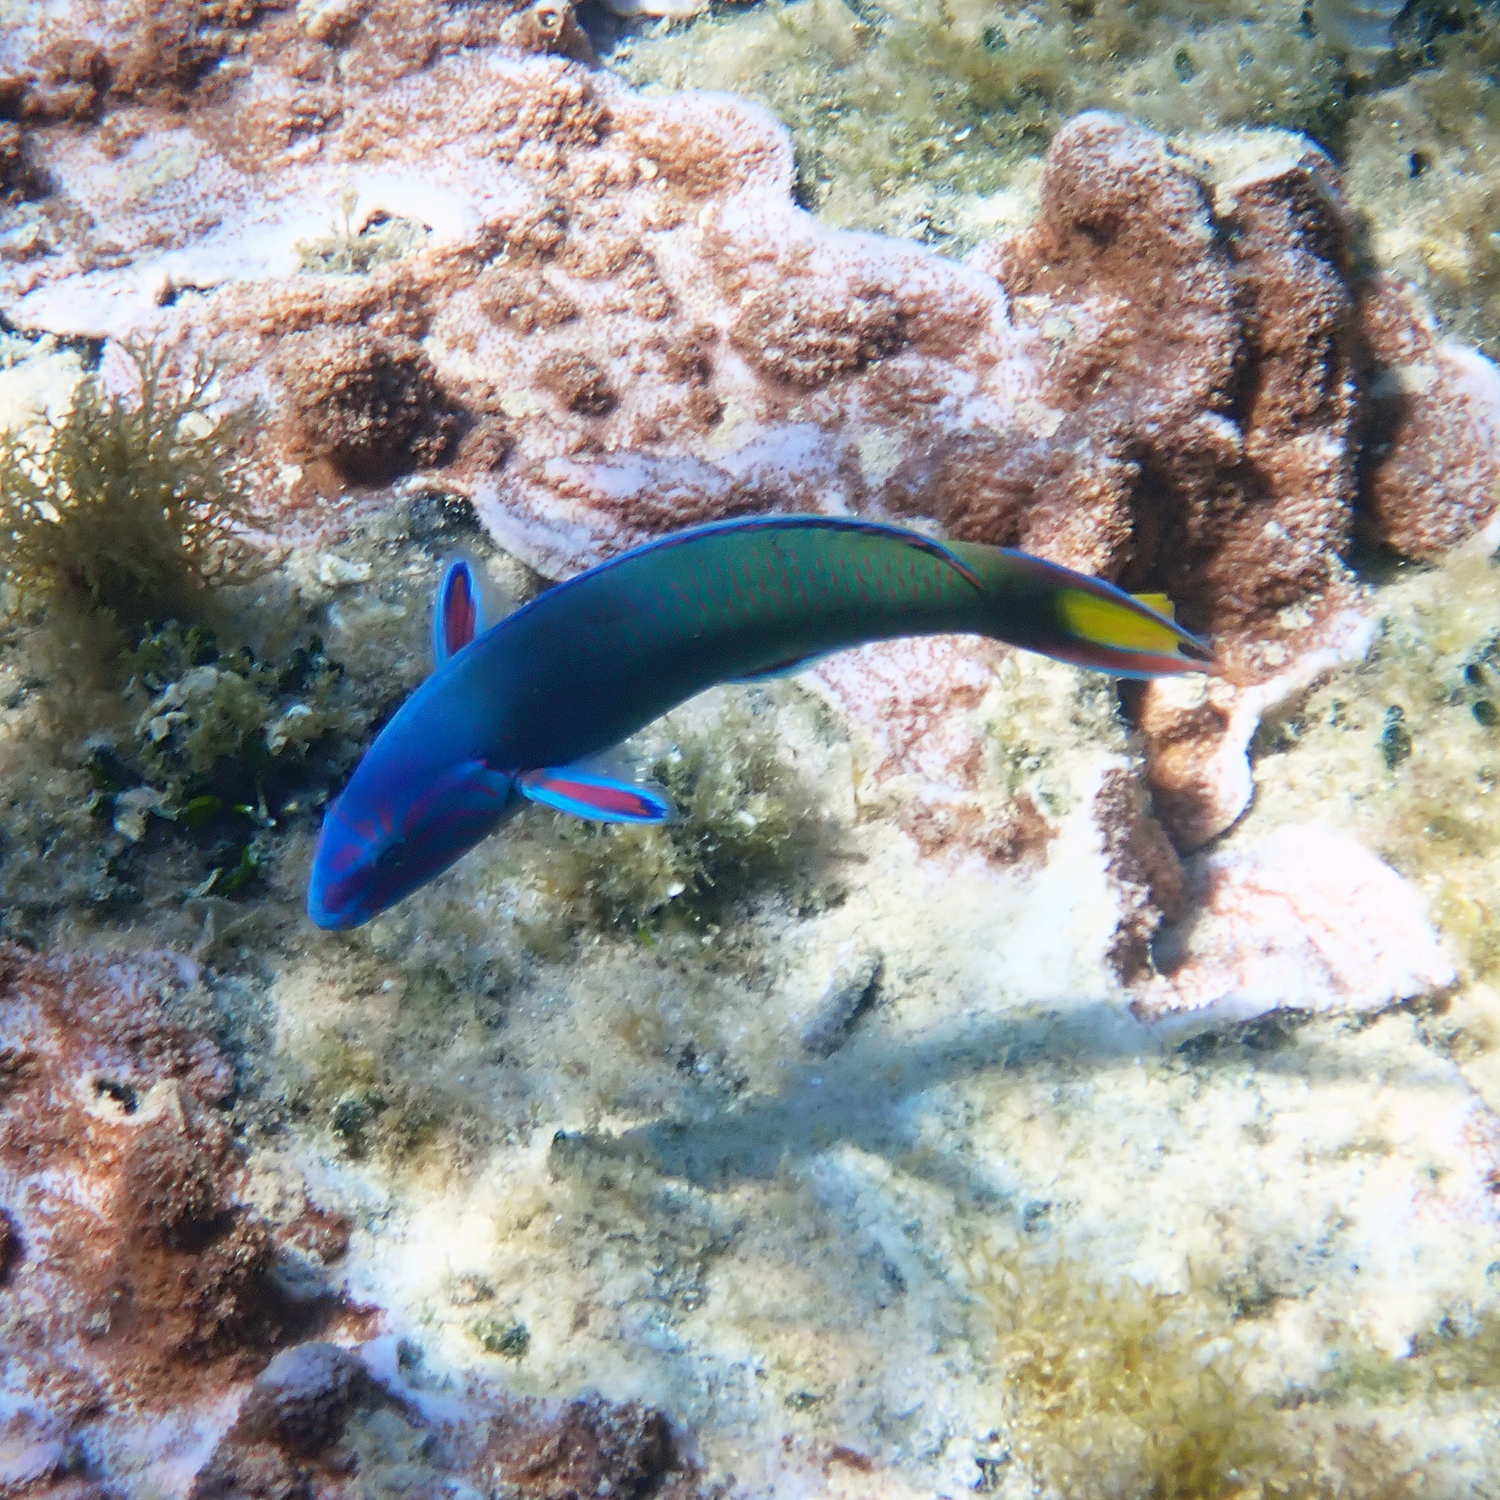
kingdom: Animalia
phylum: Chordata
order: Perciformes
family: Labridae
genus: Thalassoma
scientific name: Thalassoma lunare
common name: Blue wrasse
